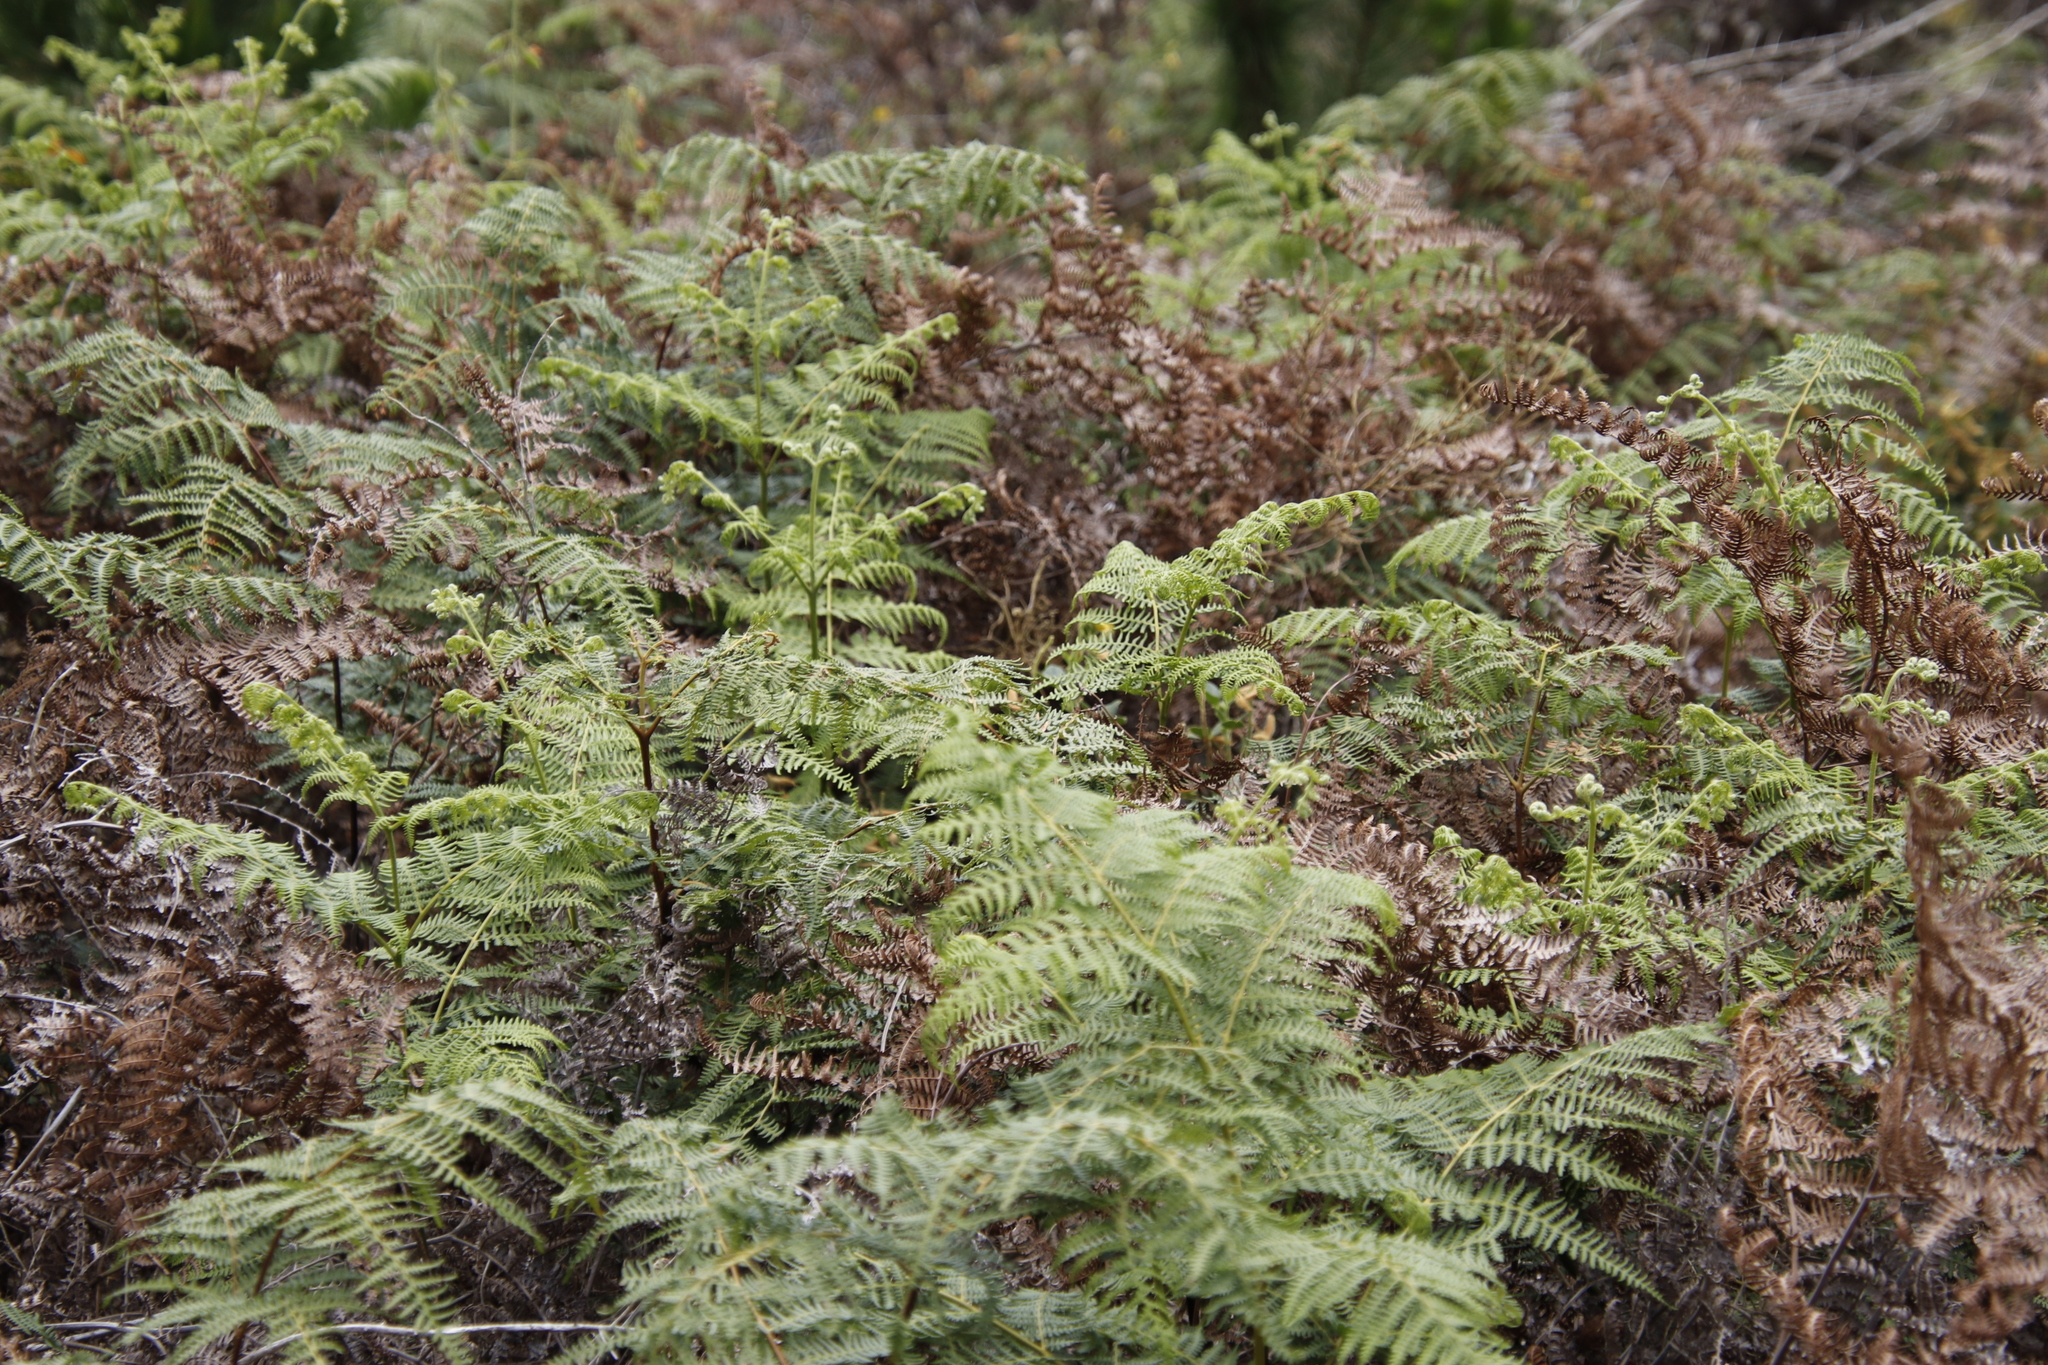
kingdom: Plantae
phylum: Tracheophyta
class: Polypodiopsida
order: Polypodiales
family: Dennstaedtiaceae
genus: Pteridium
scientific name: Pteridium aquilinum
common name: Bracken
